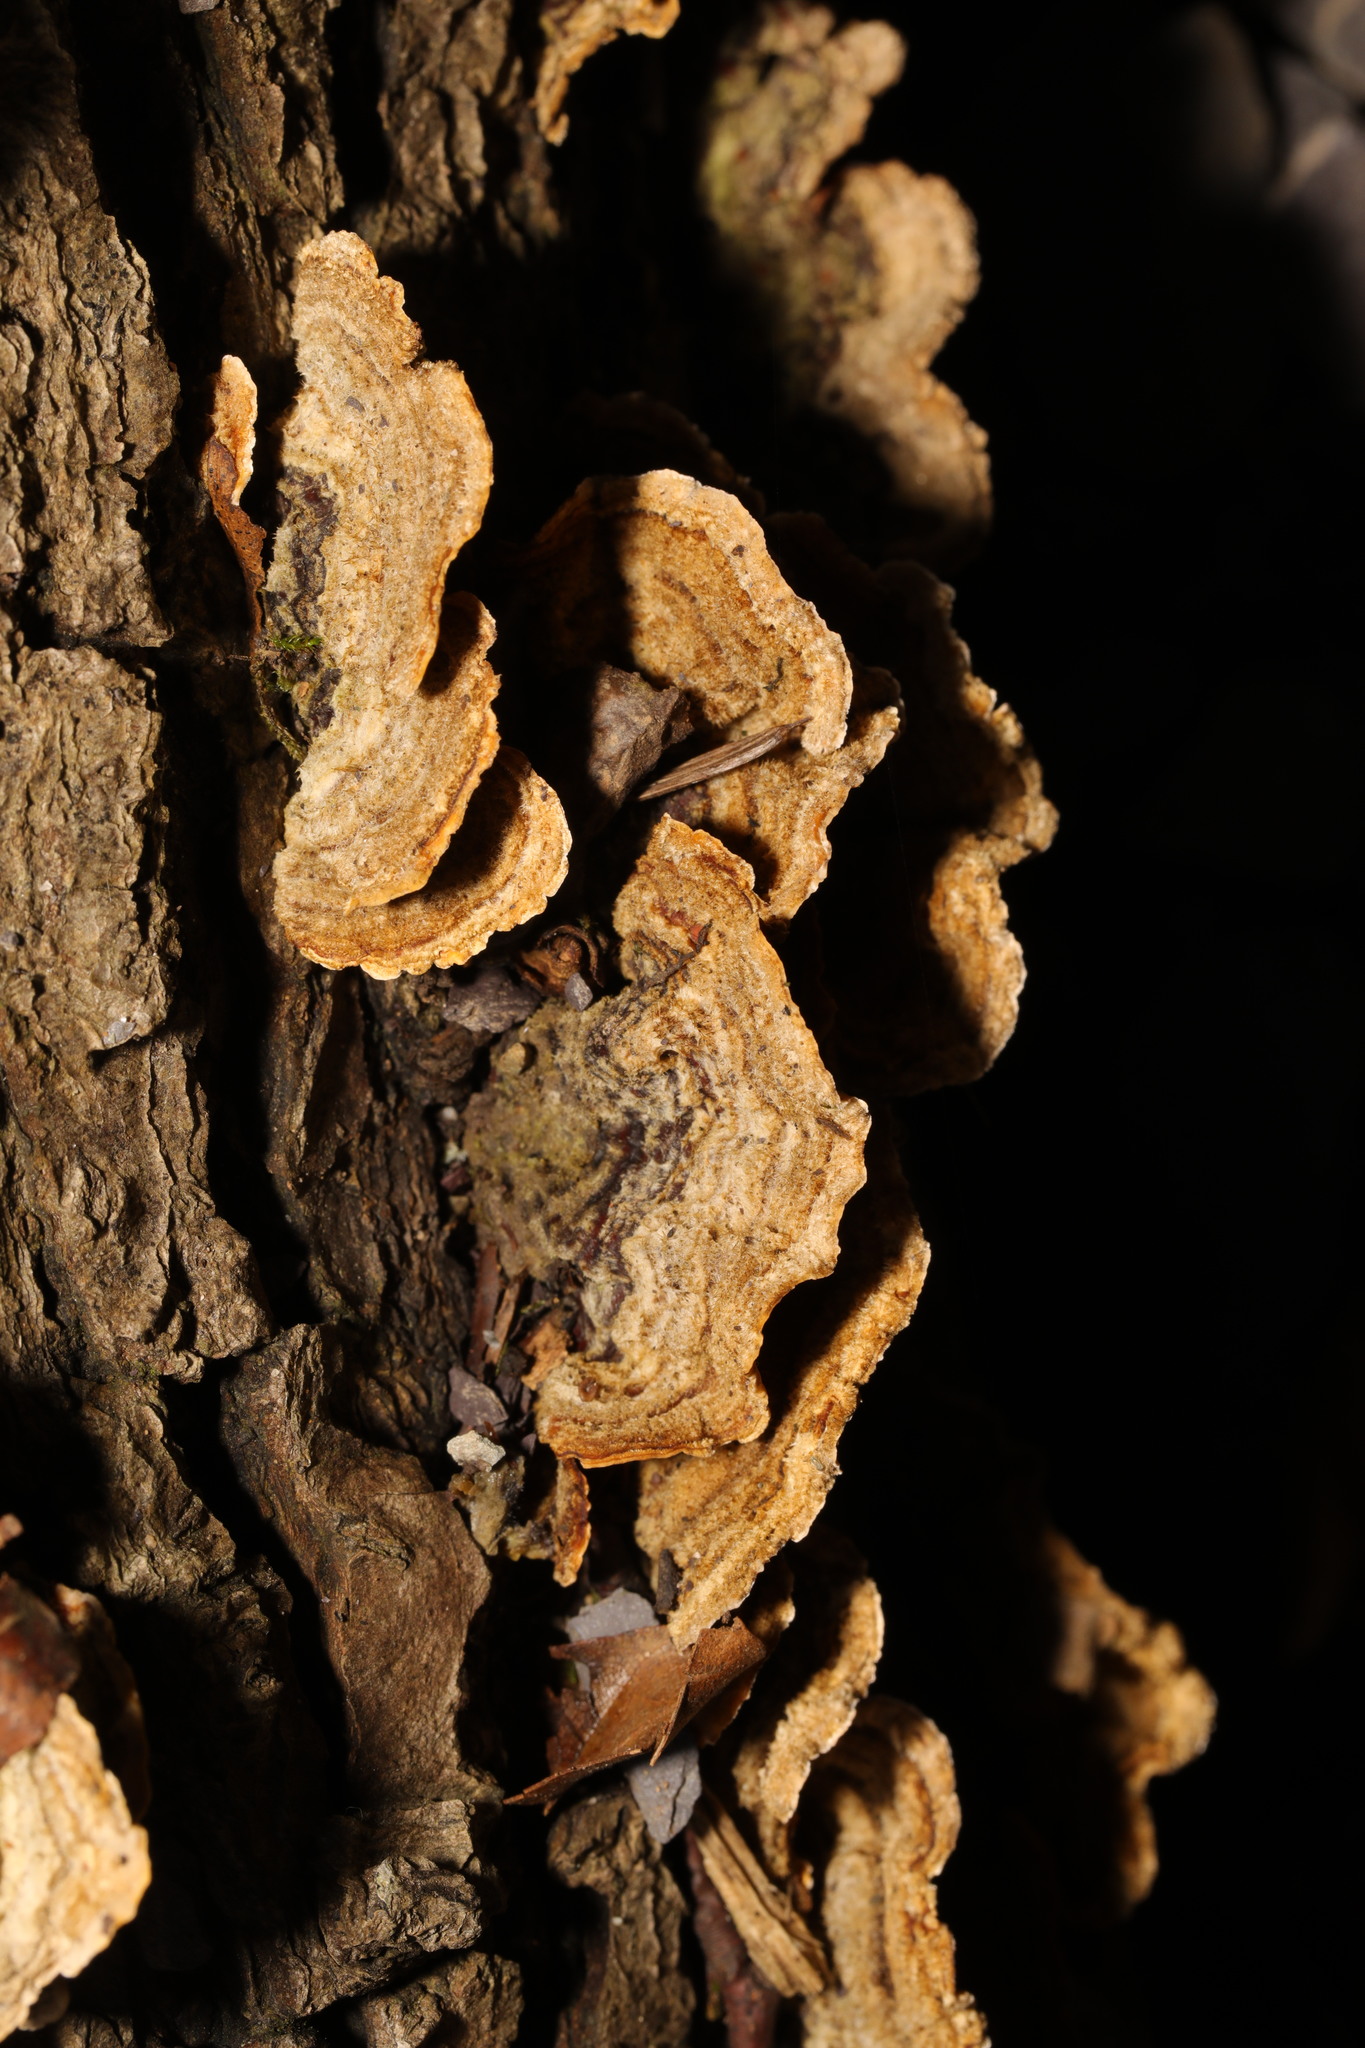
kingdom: Fungi
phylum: Basidiomycota
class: Agaricomycetes
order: Russulales
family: Stereaceae
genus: Stereum
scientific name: Stereum hirsutum
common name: Hairy curtain crust
